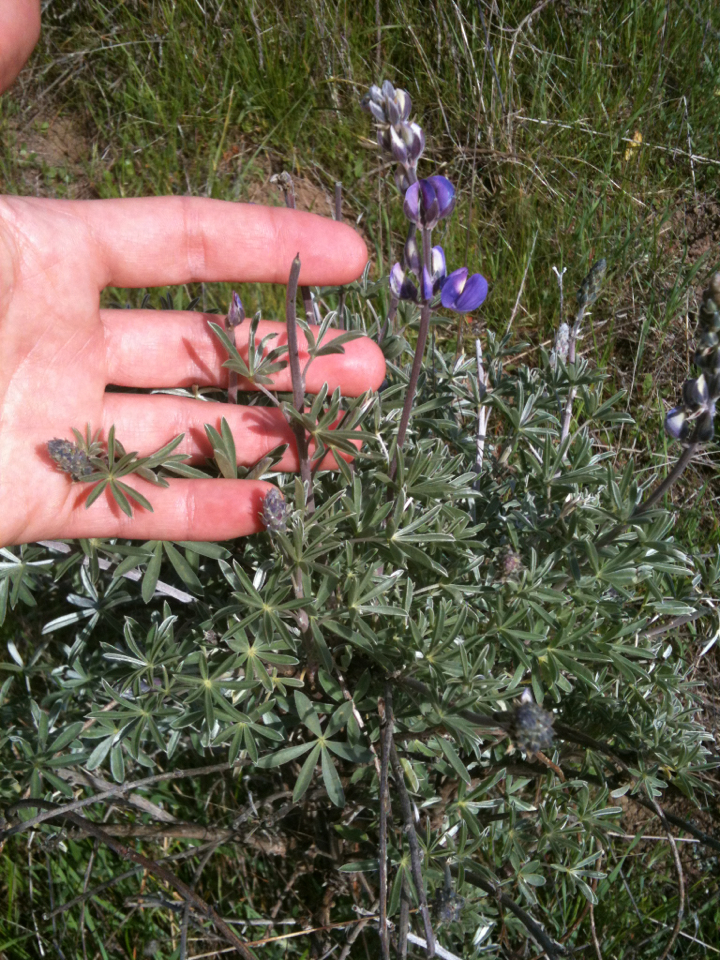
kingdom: Plantae
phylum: Tracheophyta
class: Magnoliopsida
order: Fabales
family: Fabaceae
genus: Lupinus
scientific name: Lupinus albifrons
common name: Foothill lupine
